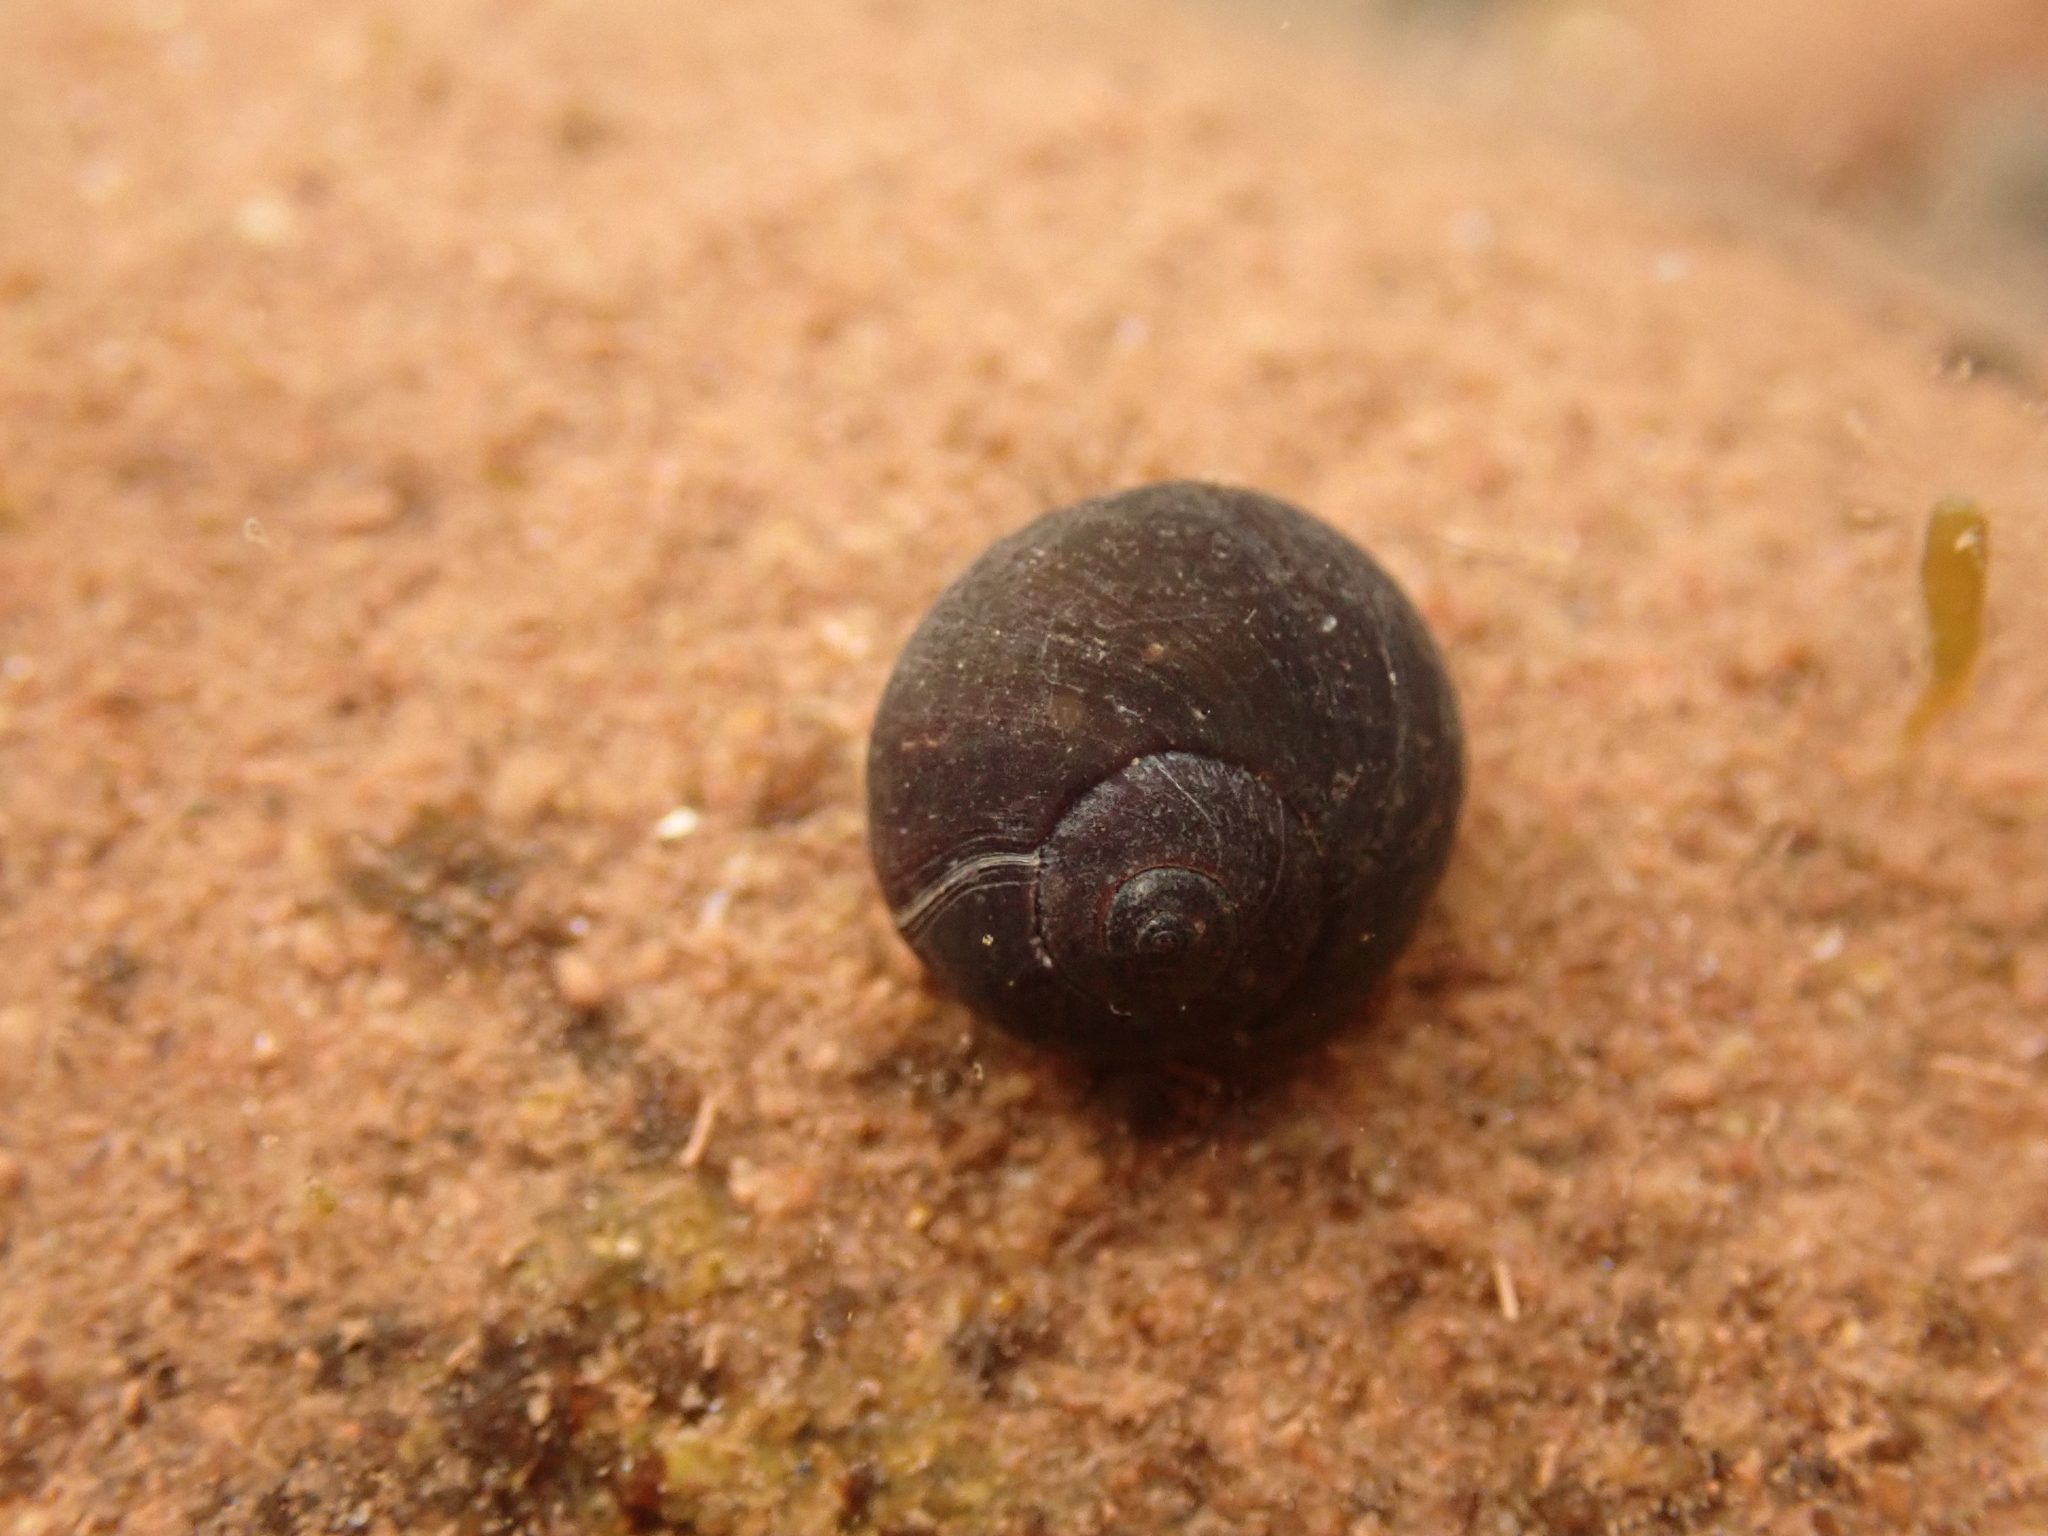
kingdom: Animalia
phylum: Mollusca
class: Gastropoda
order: Littorinimorpha
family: Littorinidae
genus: Littorina
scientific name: Littorina obtusata
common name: Flat periwinkle
